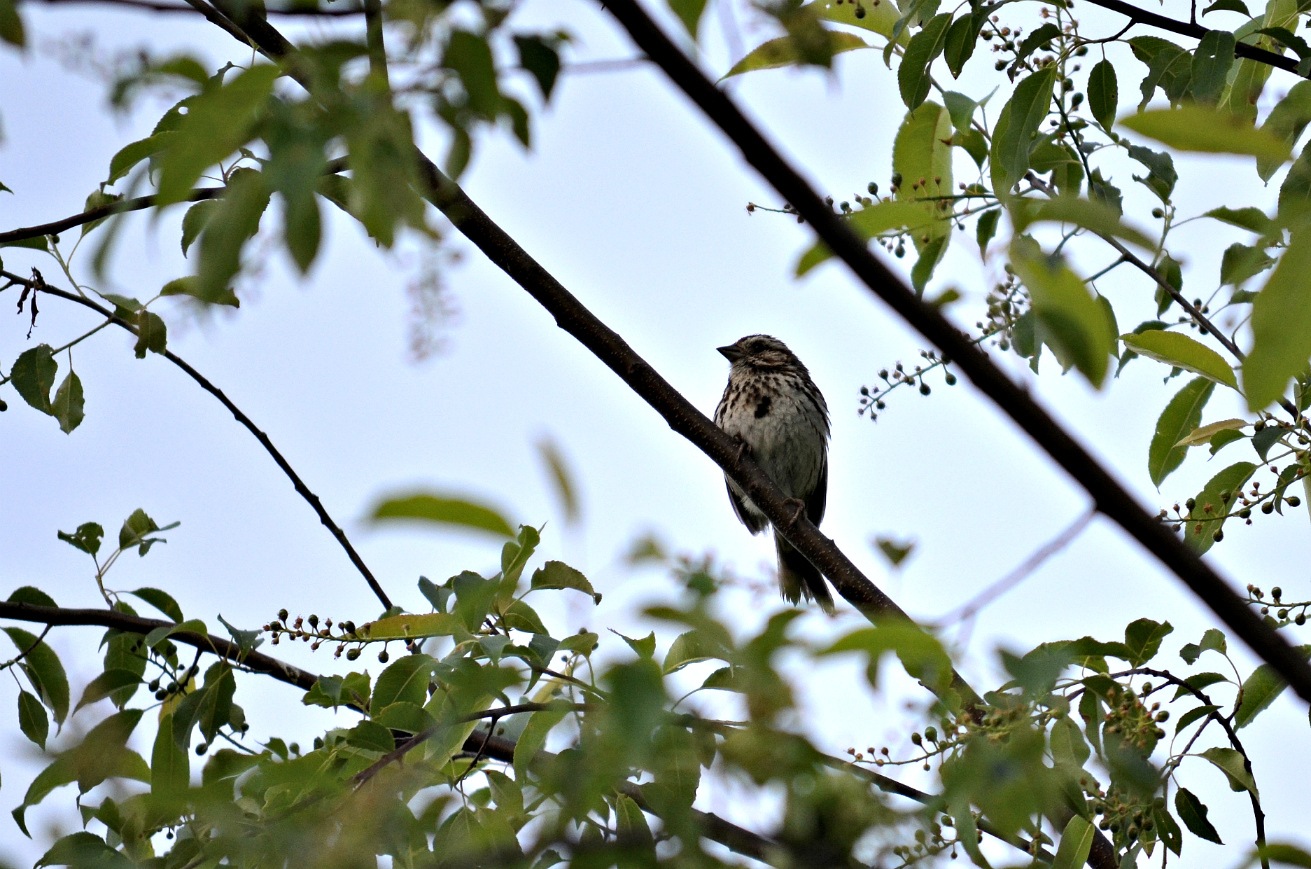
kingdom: Animalia
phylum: Chordata
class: Aves
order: Passeriformes
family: Passerellidae
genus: Melospiza
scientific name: Melospiza melodia
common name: Song sparrow
